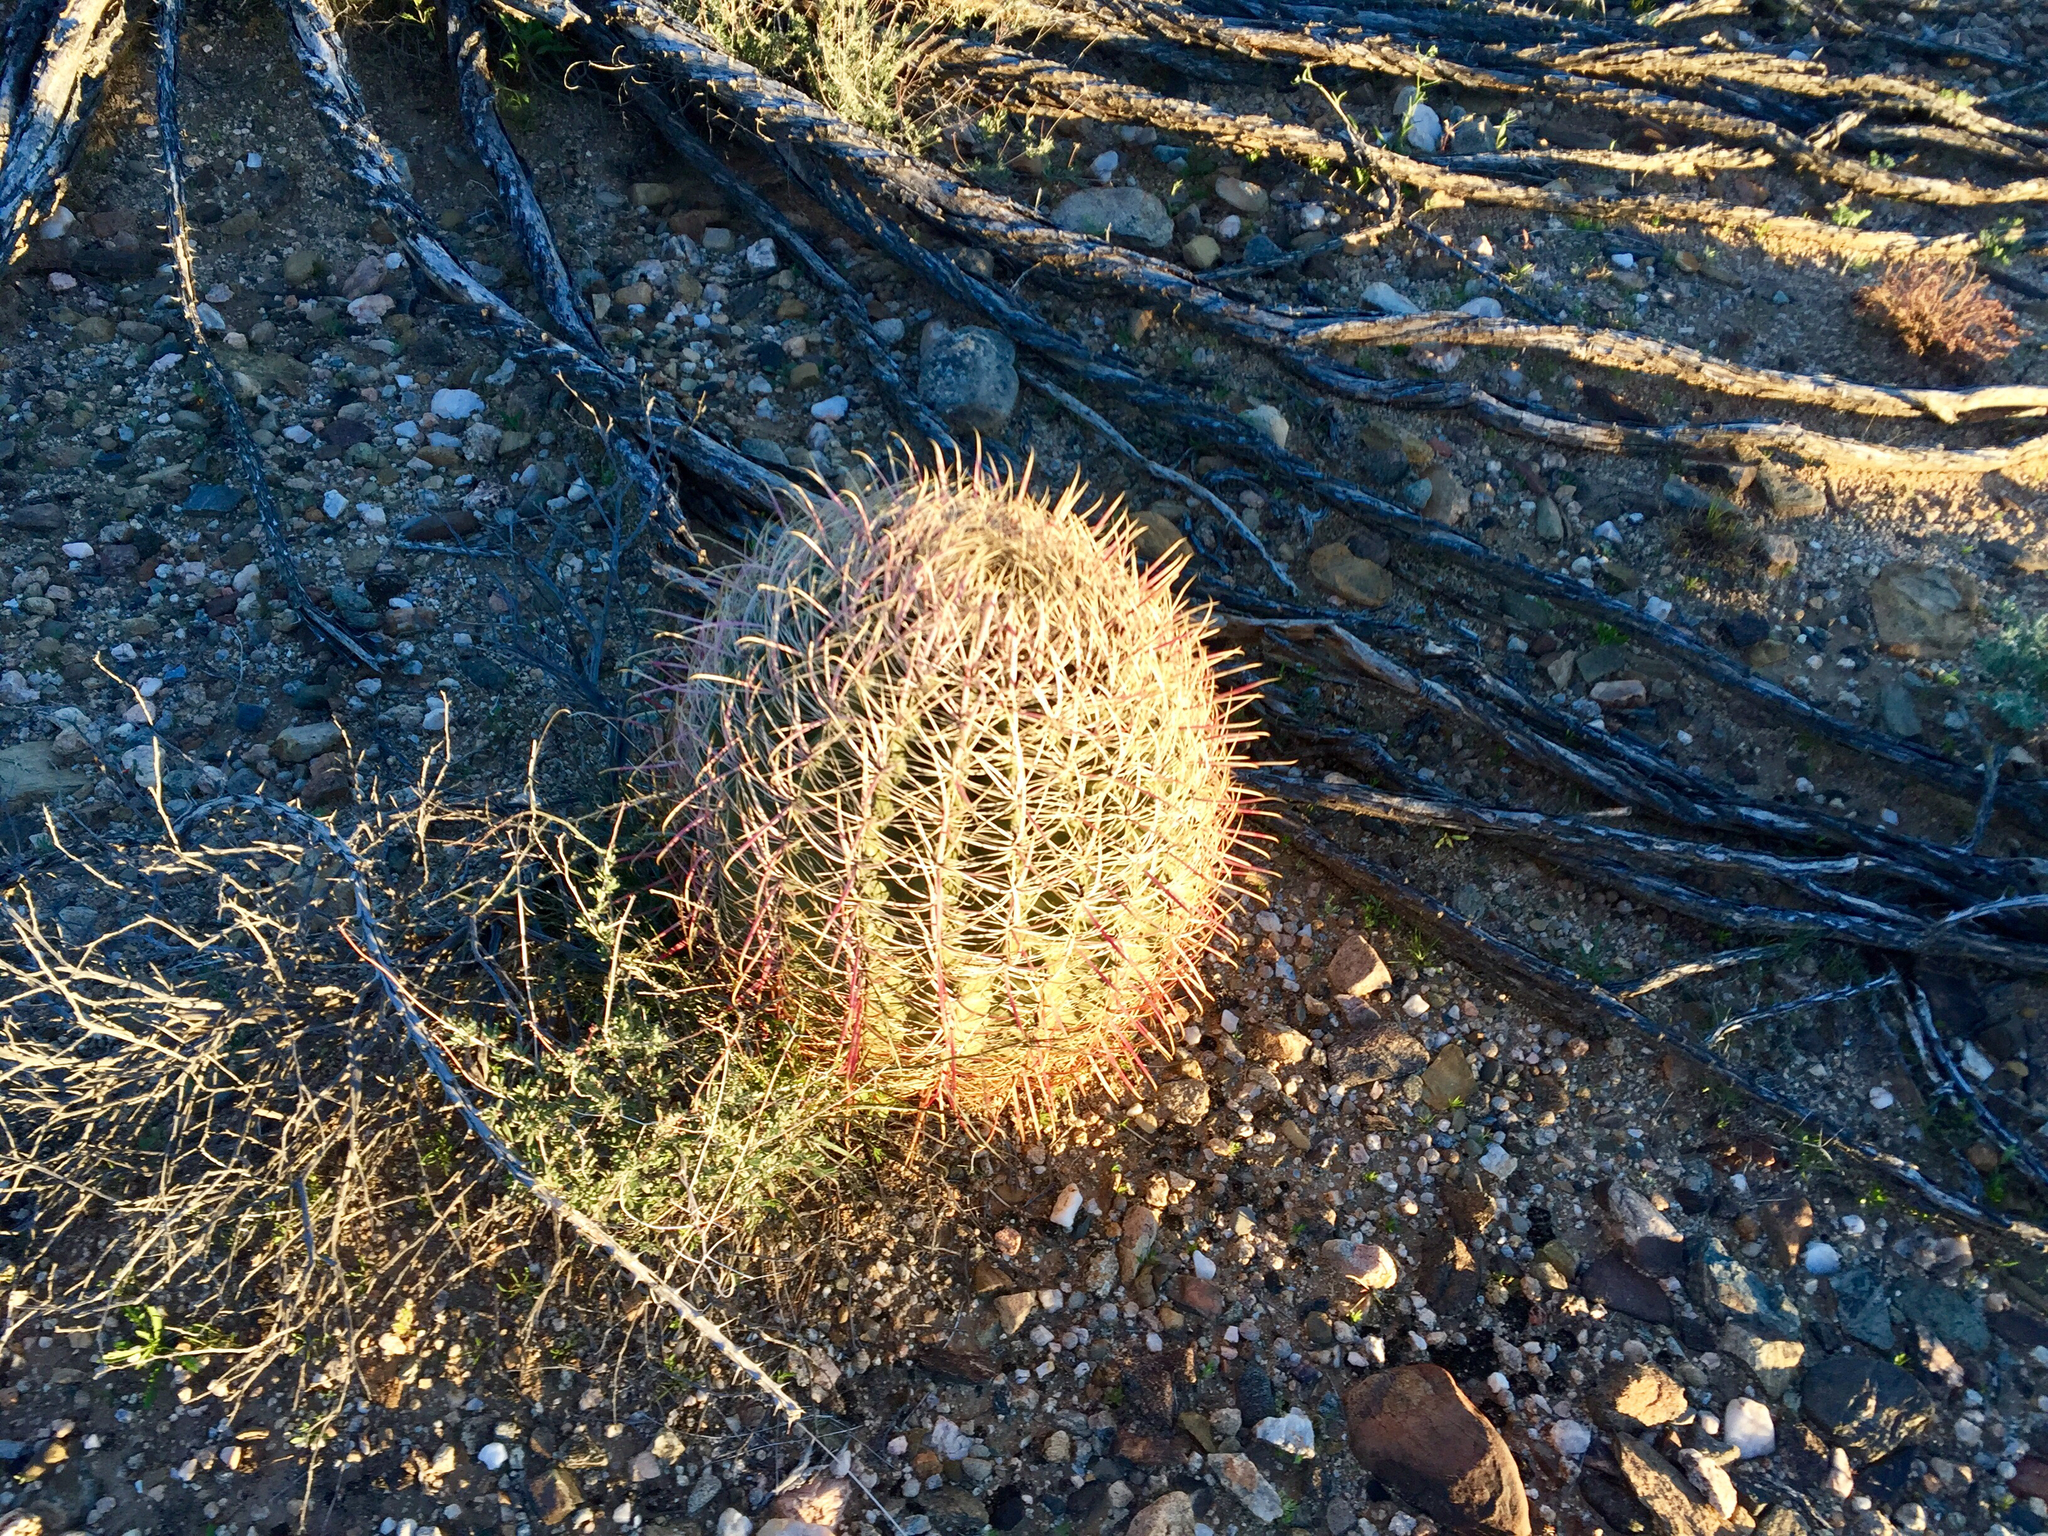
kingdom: Plantae
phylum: Tracheophyta
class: Magnoliopsida
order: Caryophyllales
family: Cactaceae
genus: Ferocactus
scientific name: Ferocactus cylindraceus
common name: California barrel cactus
